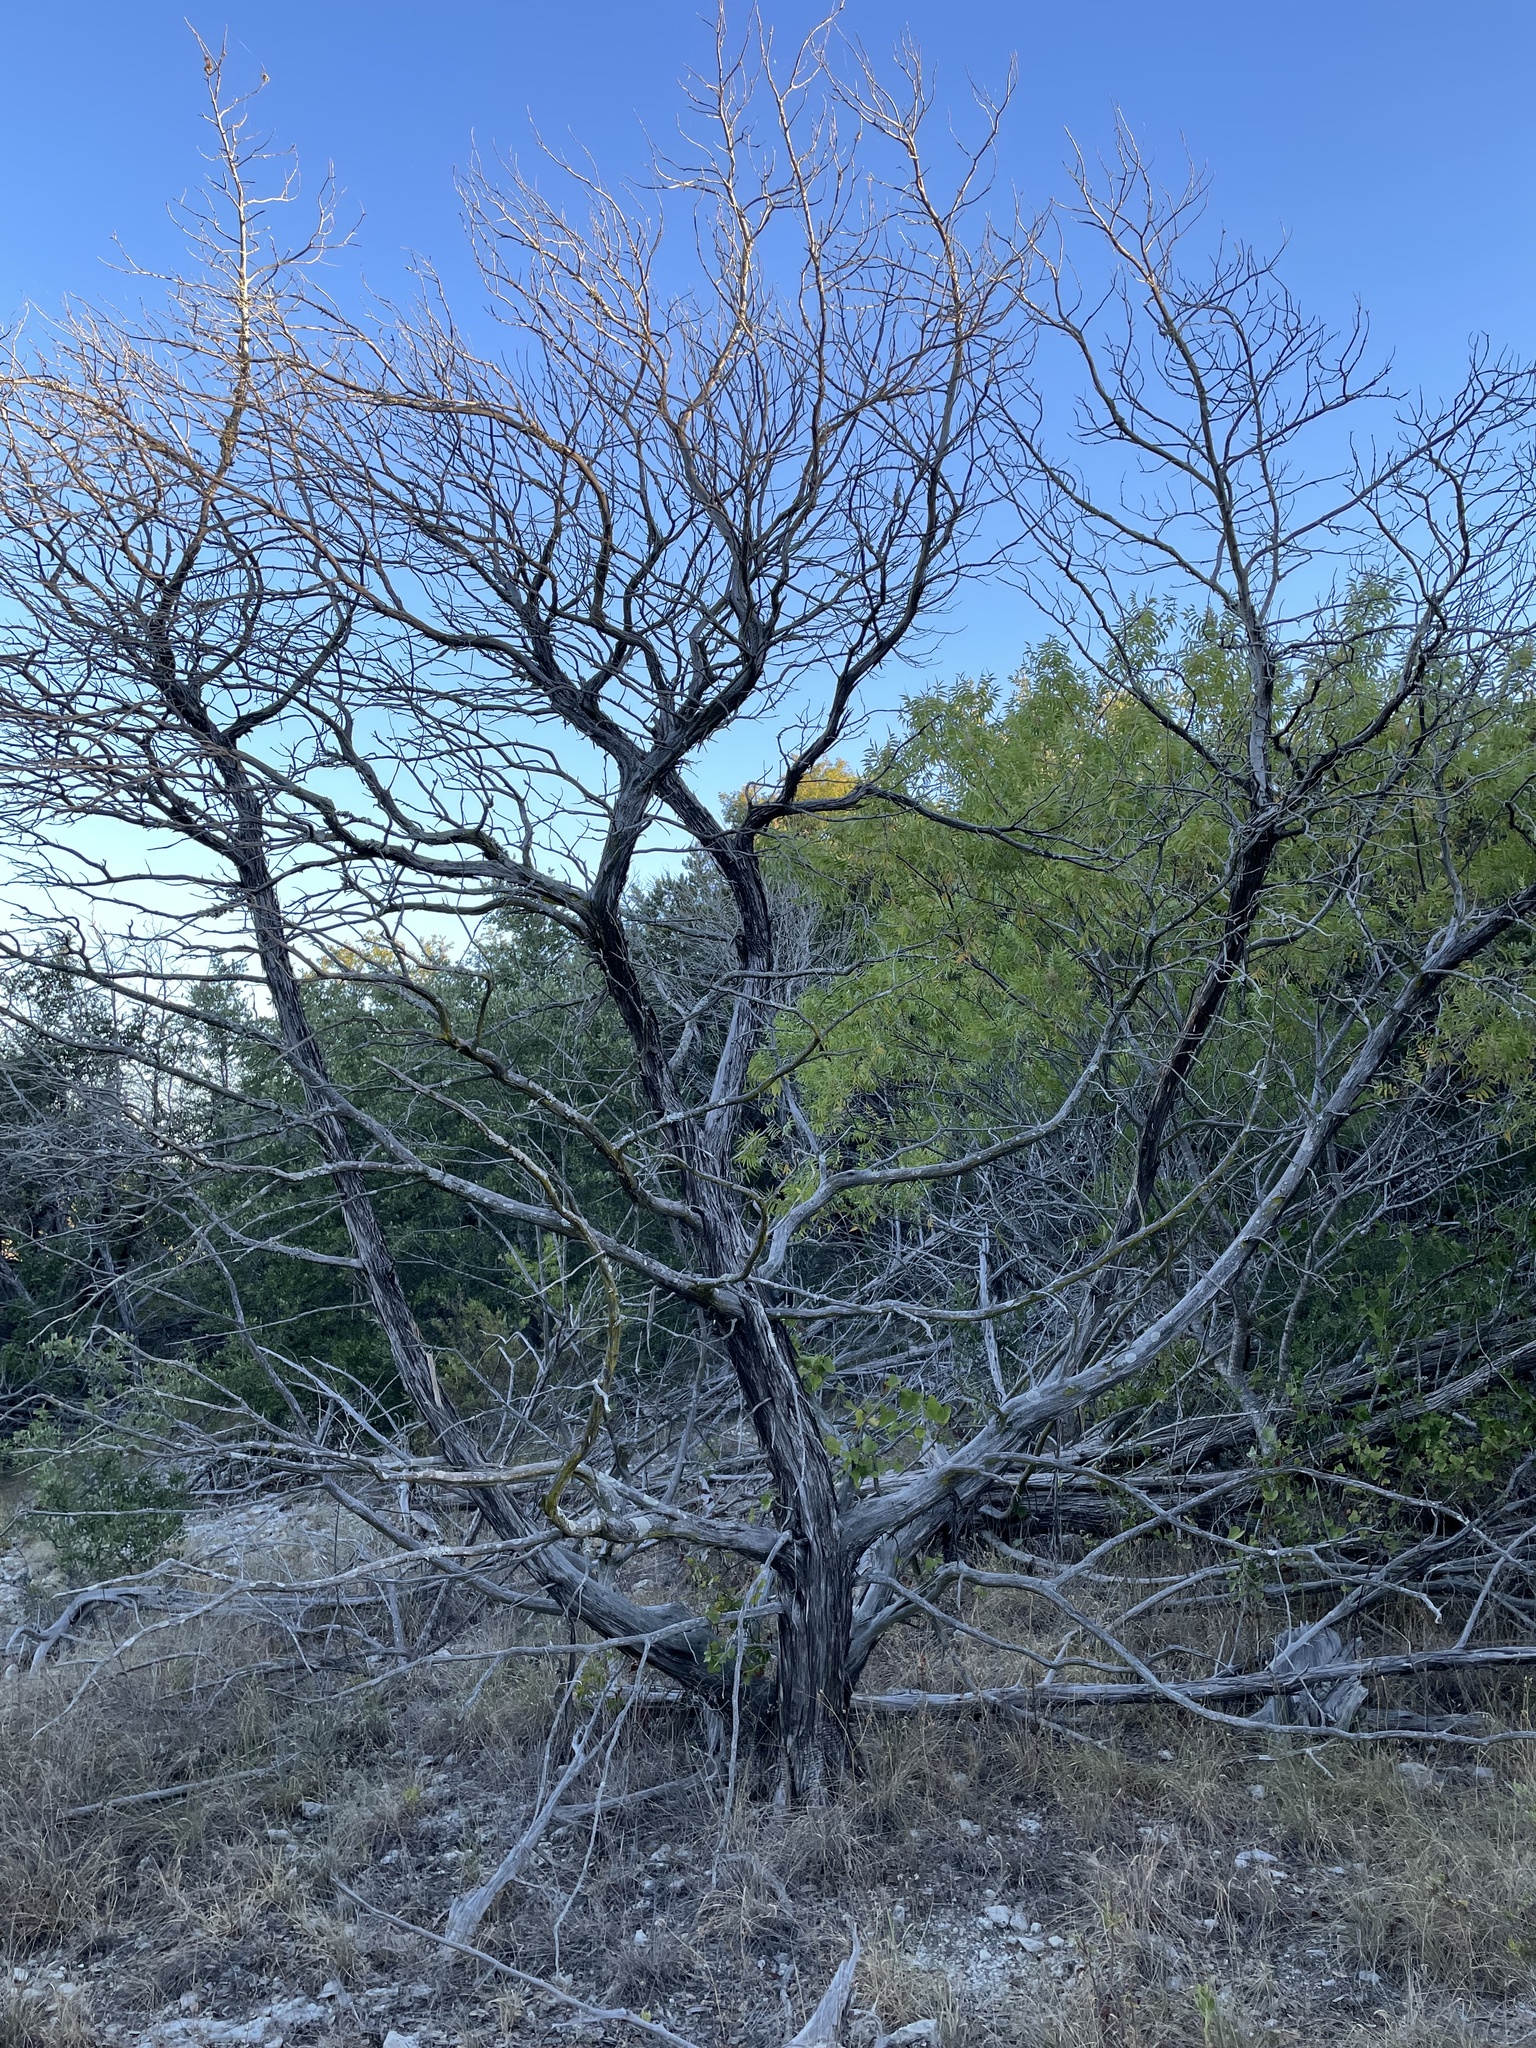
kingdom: Plantae
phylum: Tracheophyta
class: Pinopsida
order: Pinales
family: Cupressaceae
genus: Juniperus
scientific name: Juniperus ashei
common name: Mexican juniper
